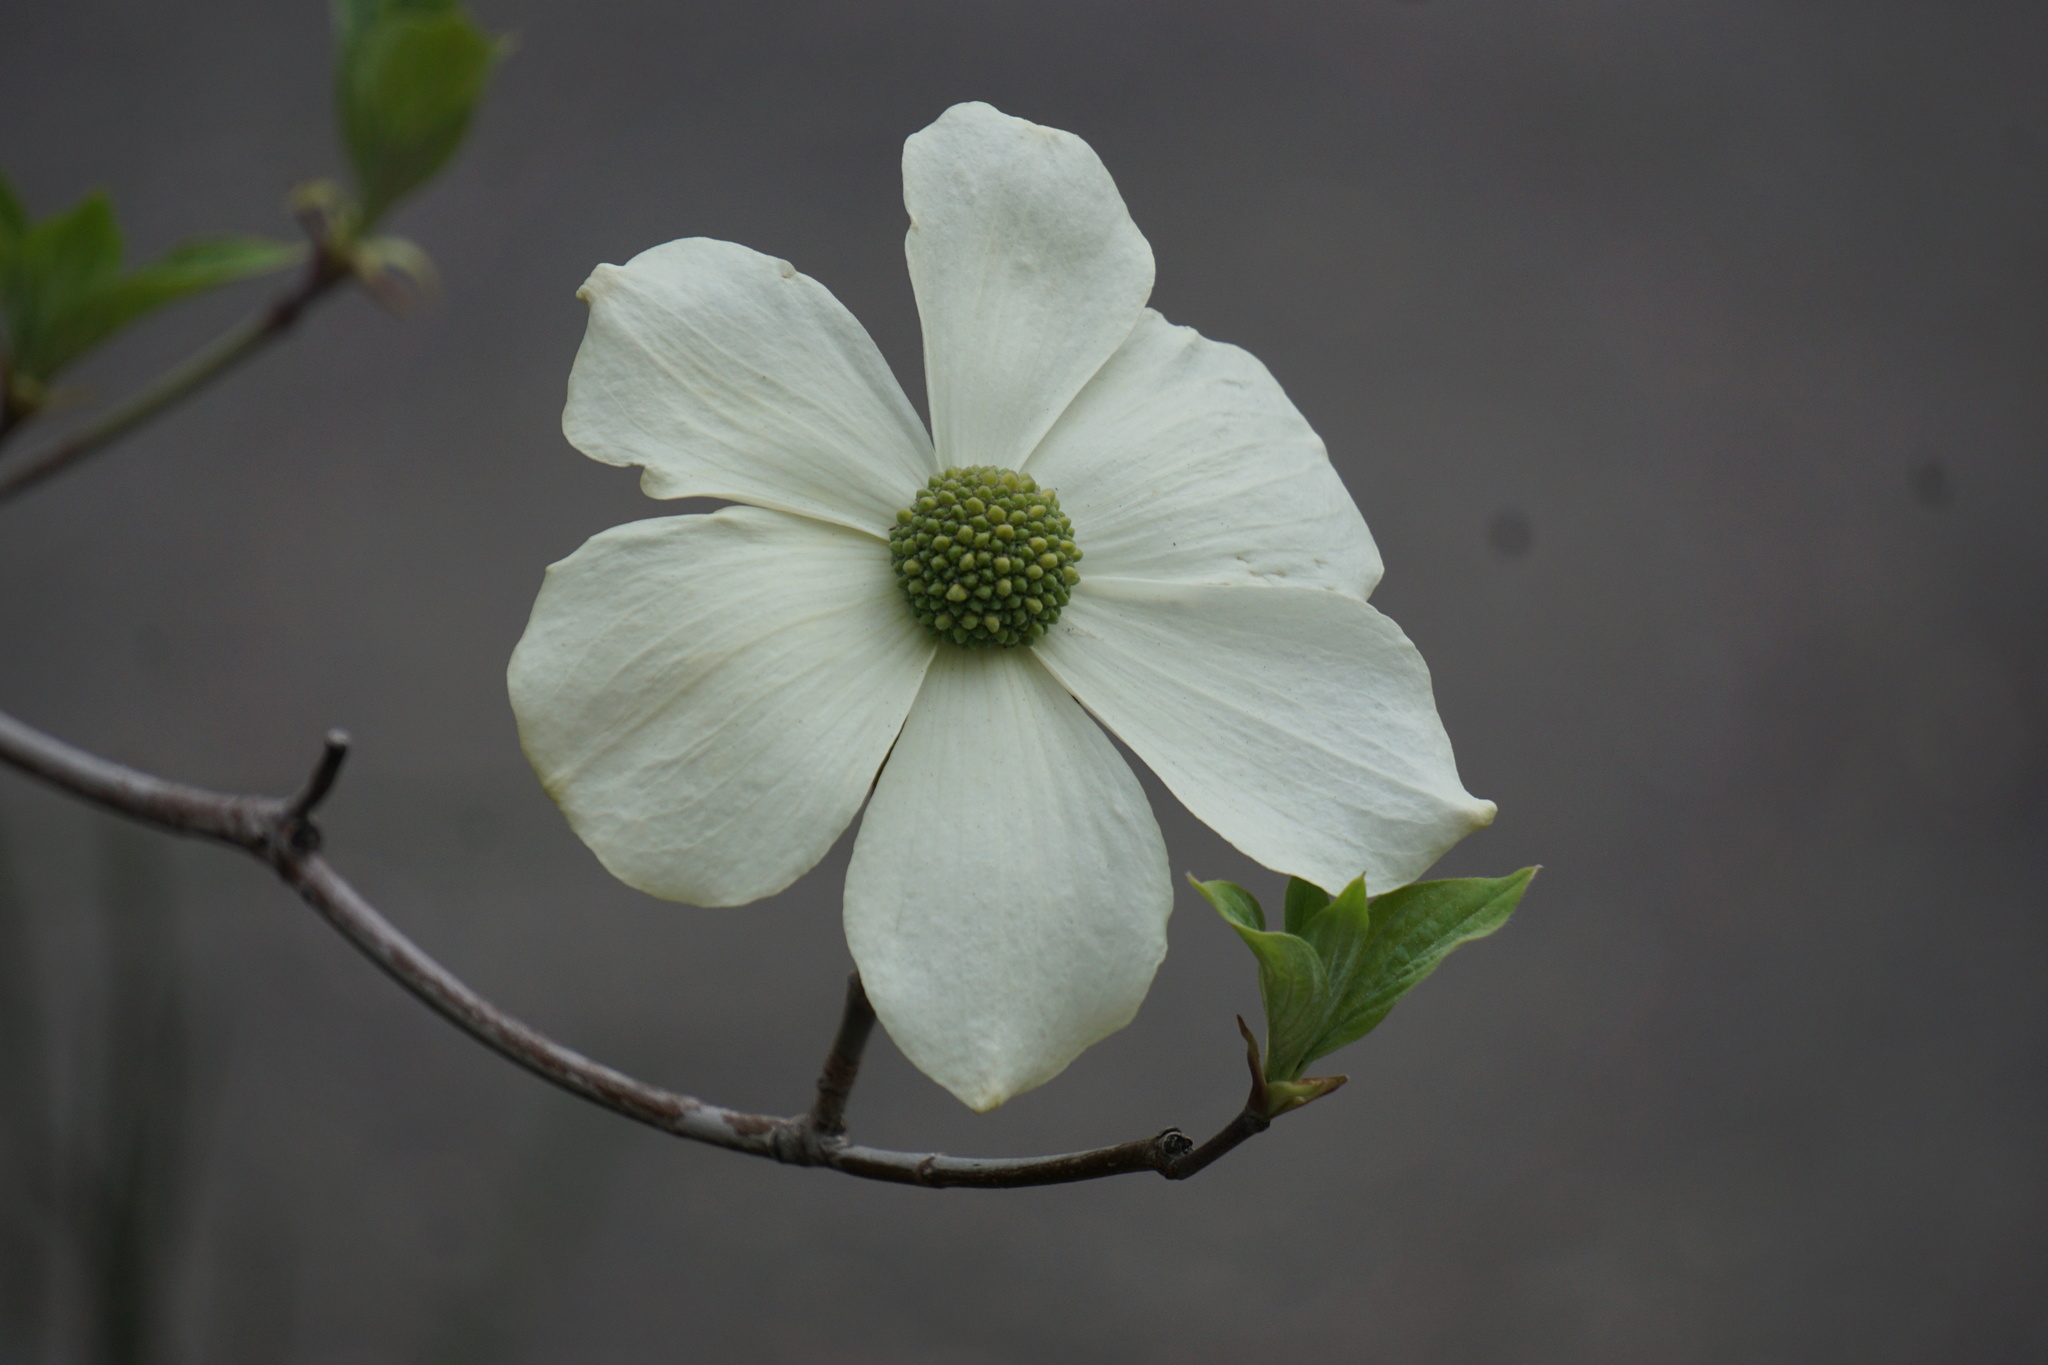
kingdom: Plantae
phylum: Tracheophyta
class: Magnoliopsida
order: Cornales
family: Cornaceae
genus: Cornus
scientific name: Cornus nuttallii
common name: Pacific dogwood
